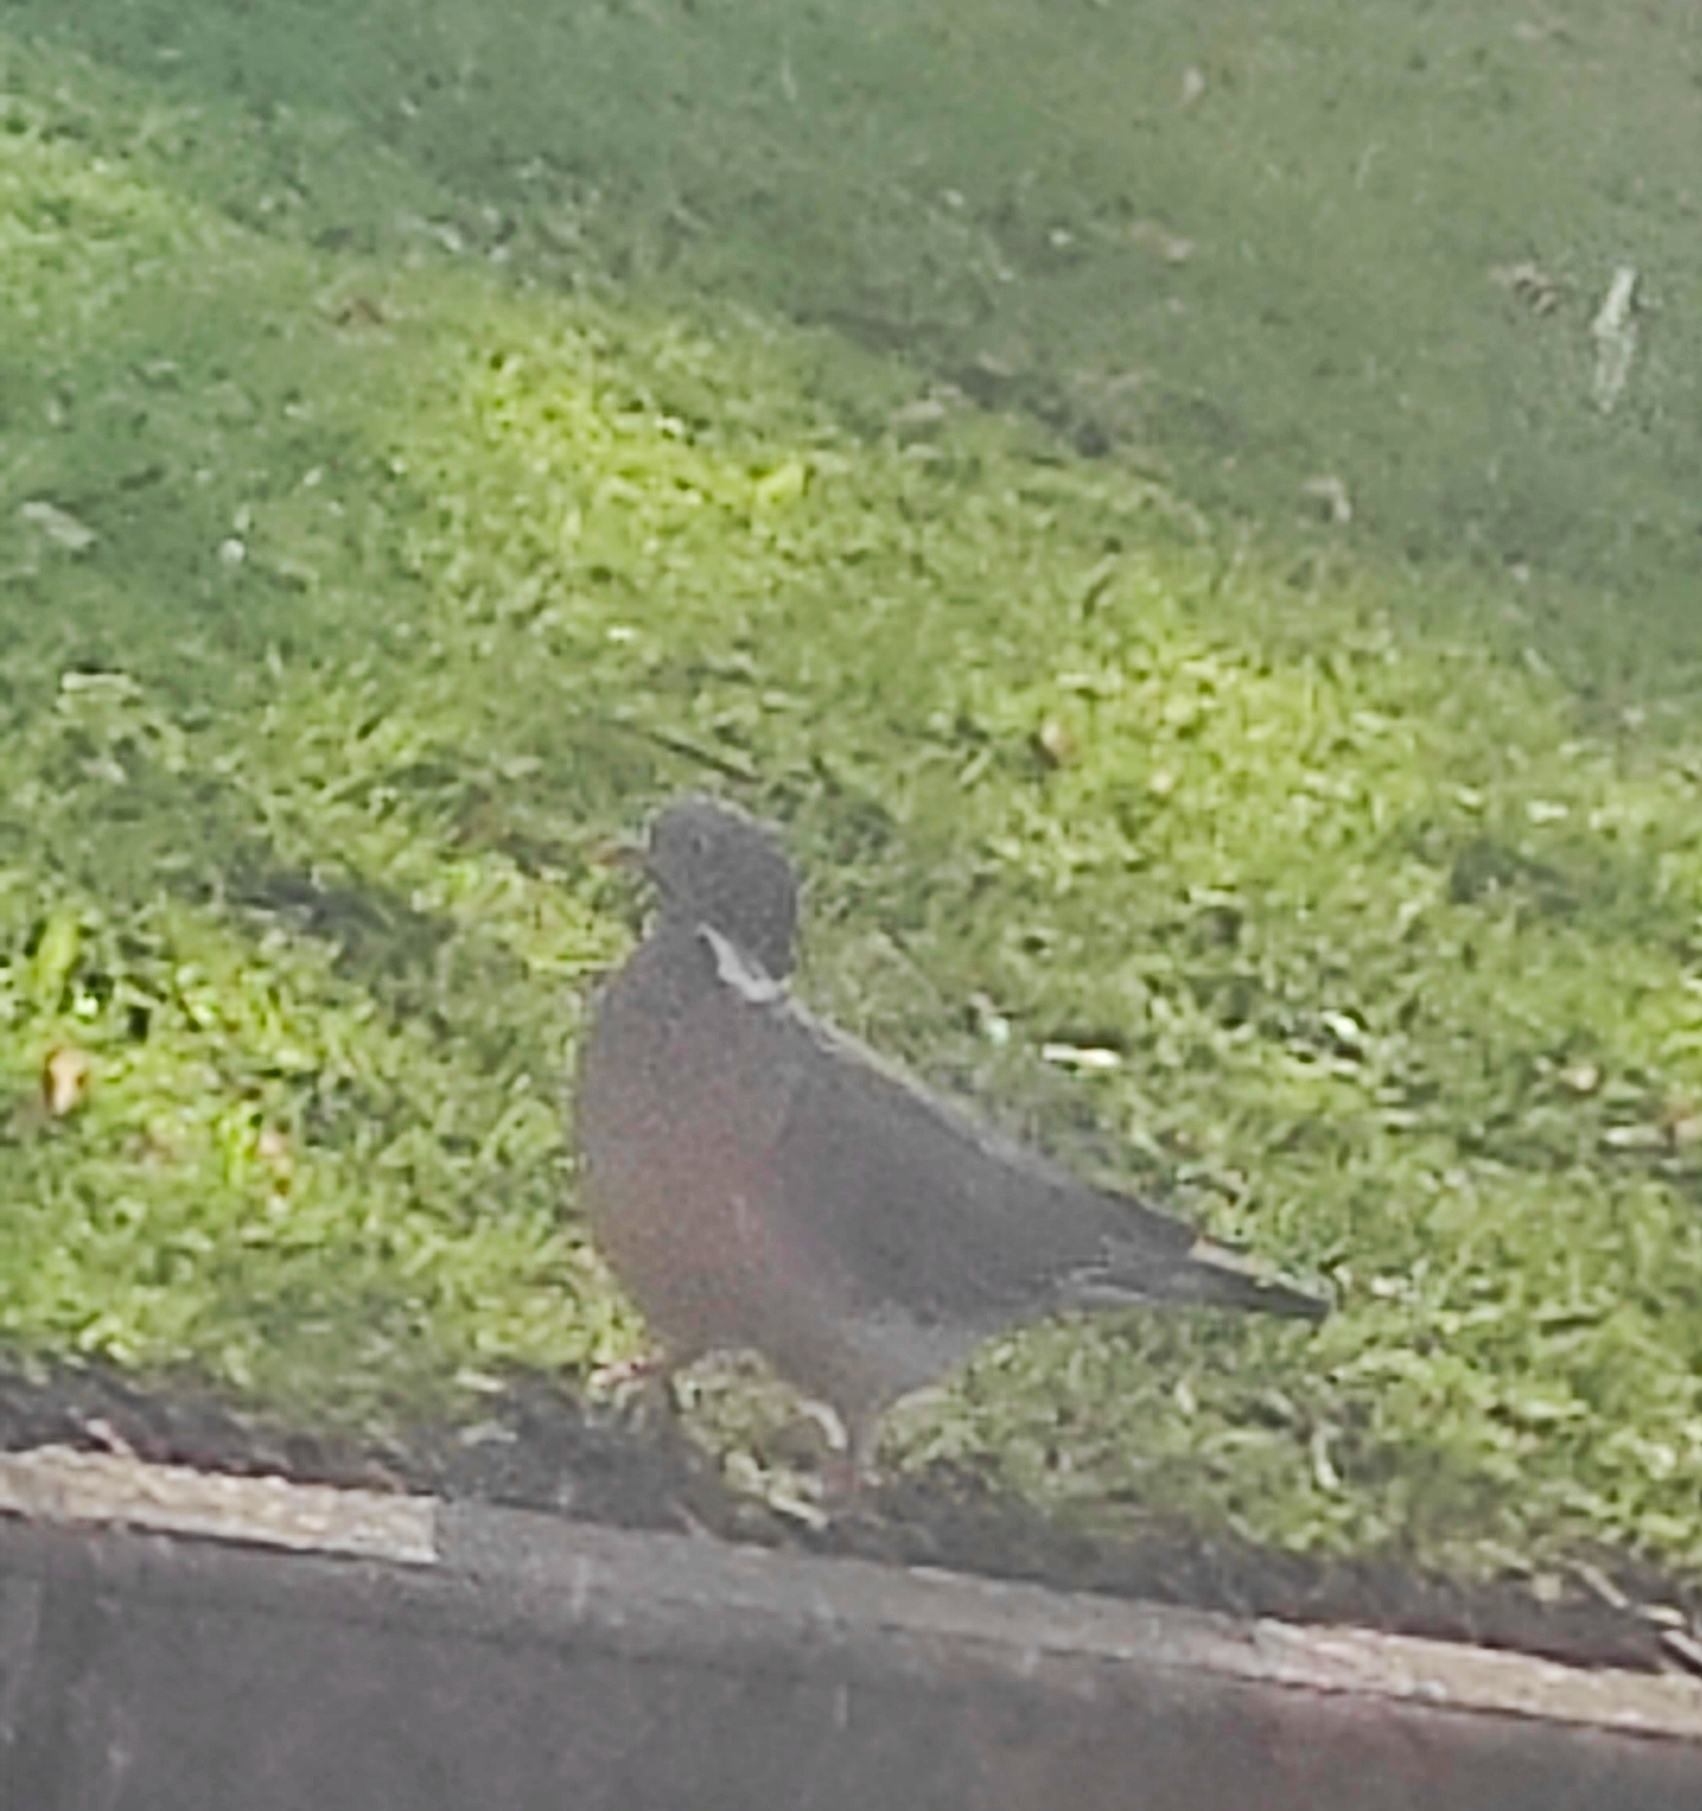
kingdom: Animalia
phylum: Chordata
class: Aves
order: Columbiformes
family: Columbidae
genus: Columba
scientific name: Columba palumbus
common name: Common wood pigeon
